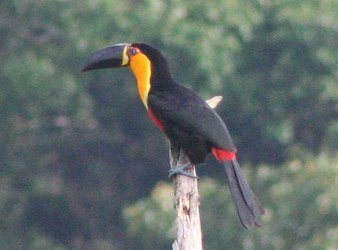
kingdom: Animalia
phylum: Chordata
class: Aves
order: Piciformes
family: Ramphastidae
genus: Ramphastos
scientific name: Ramphastos vitellinus
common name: Channel-billed toucan
